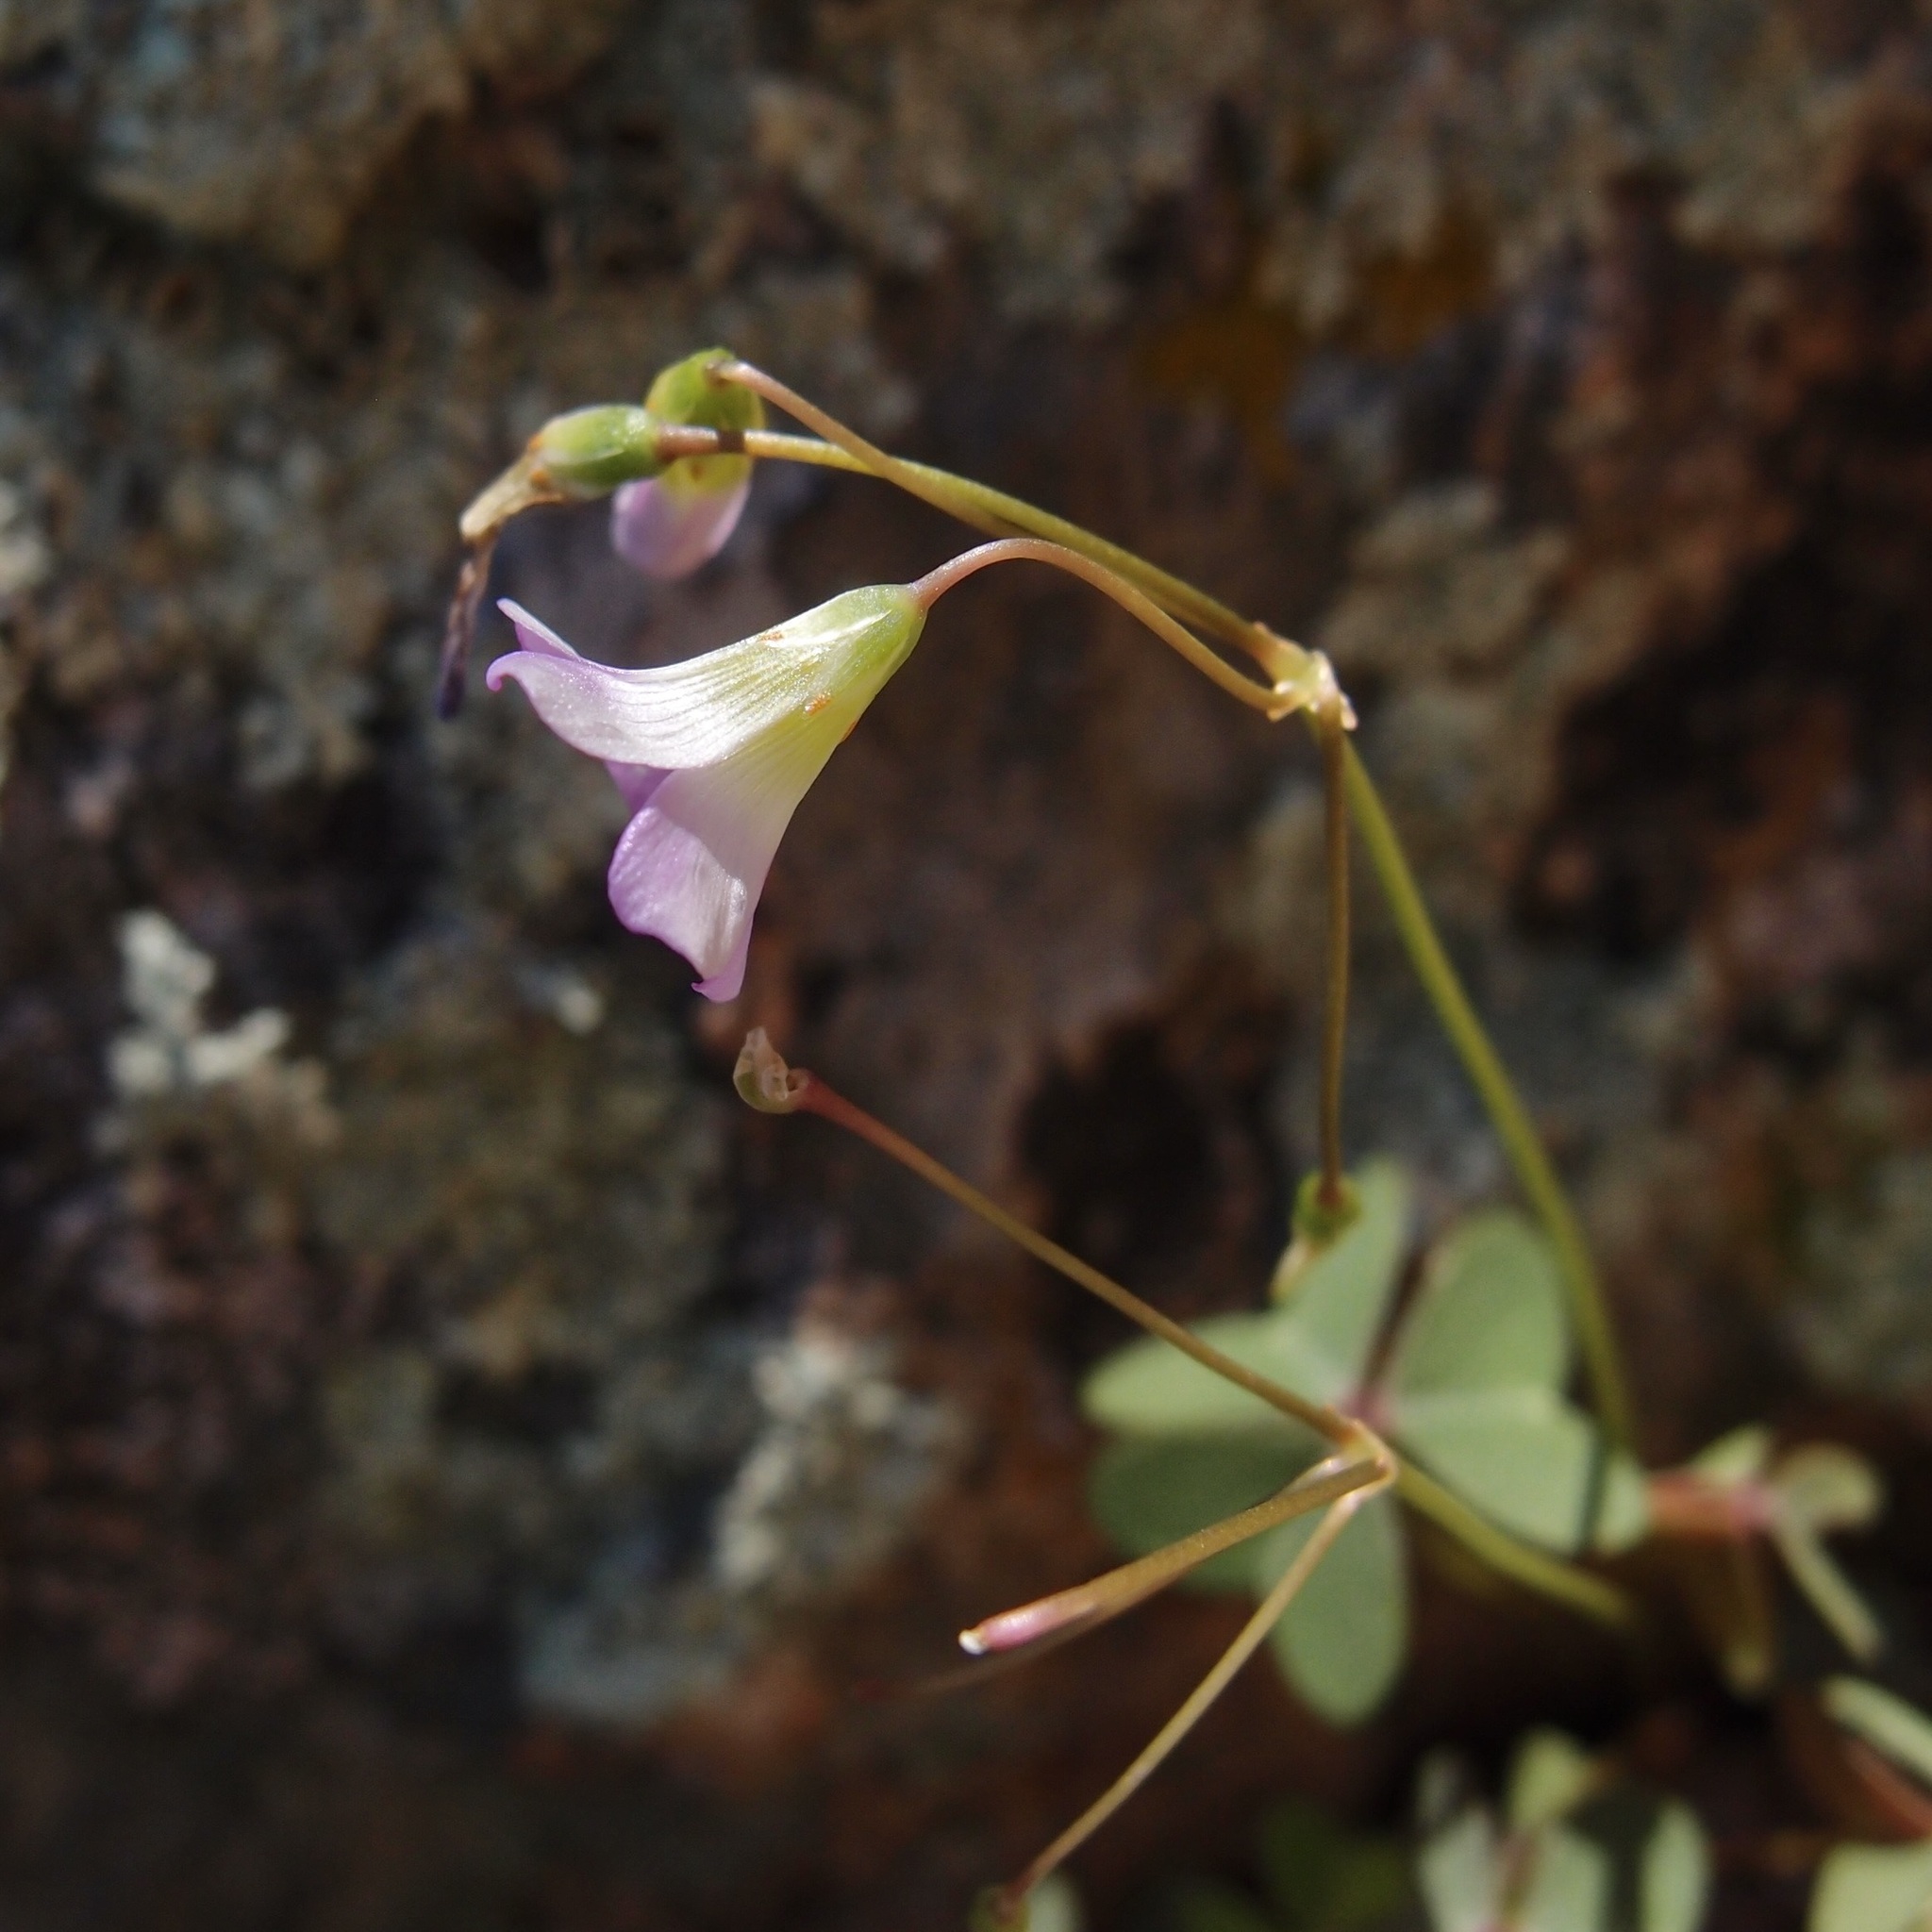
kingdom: Plantae
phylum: Tracheophyta
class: Magnoliopsida
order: Oxalidales
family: Oxalidaceae
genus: Oxalis
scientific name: Oxalis metcalfei
